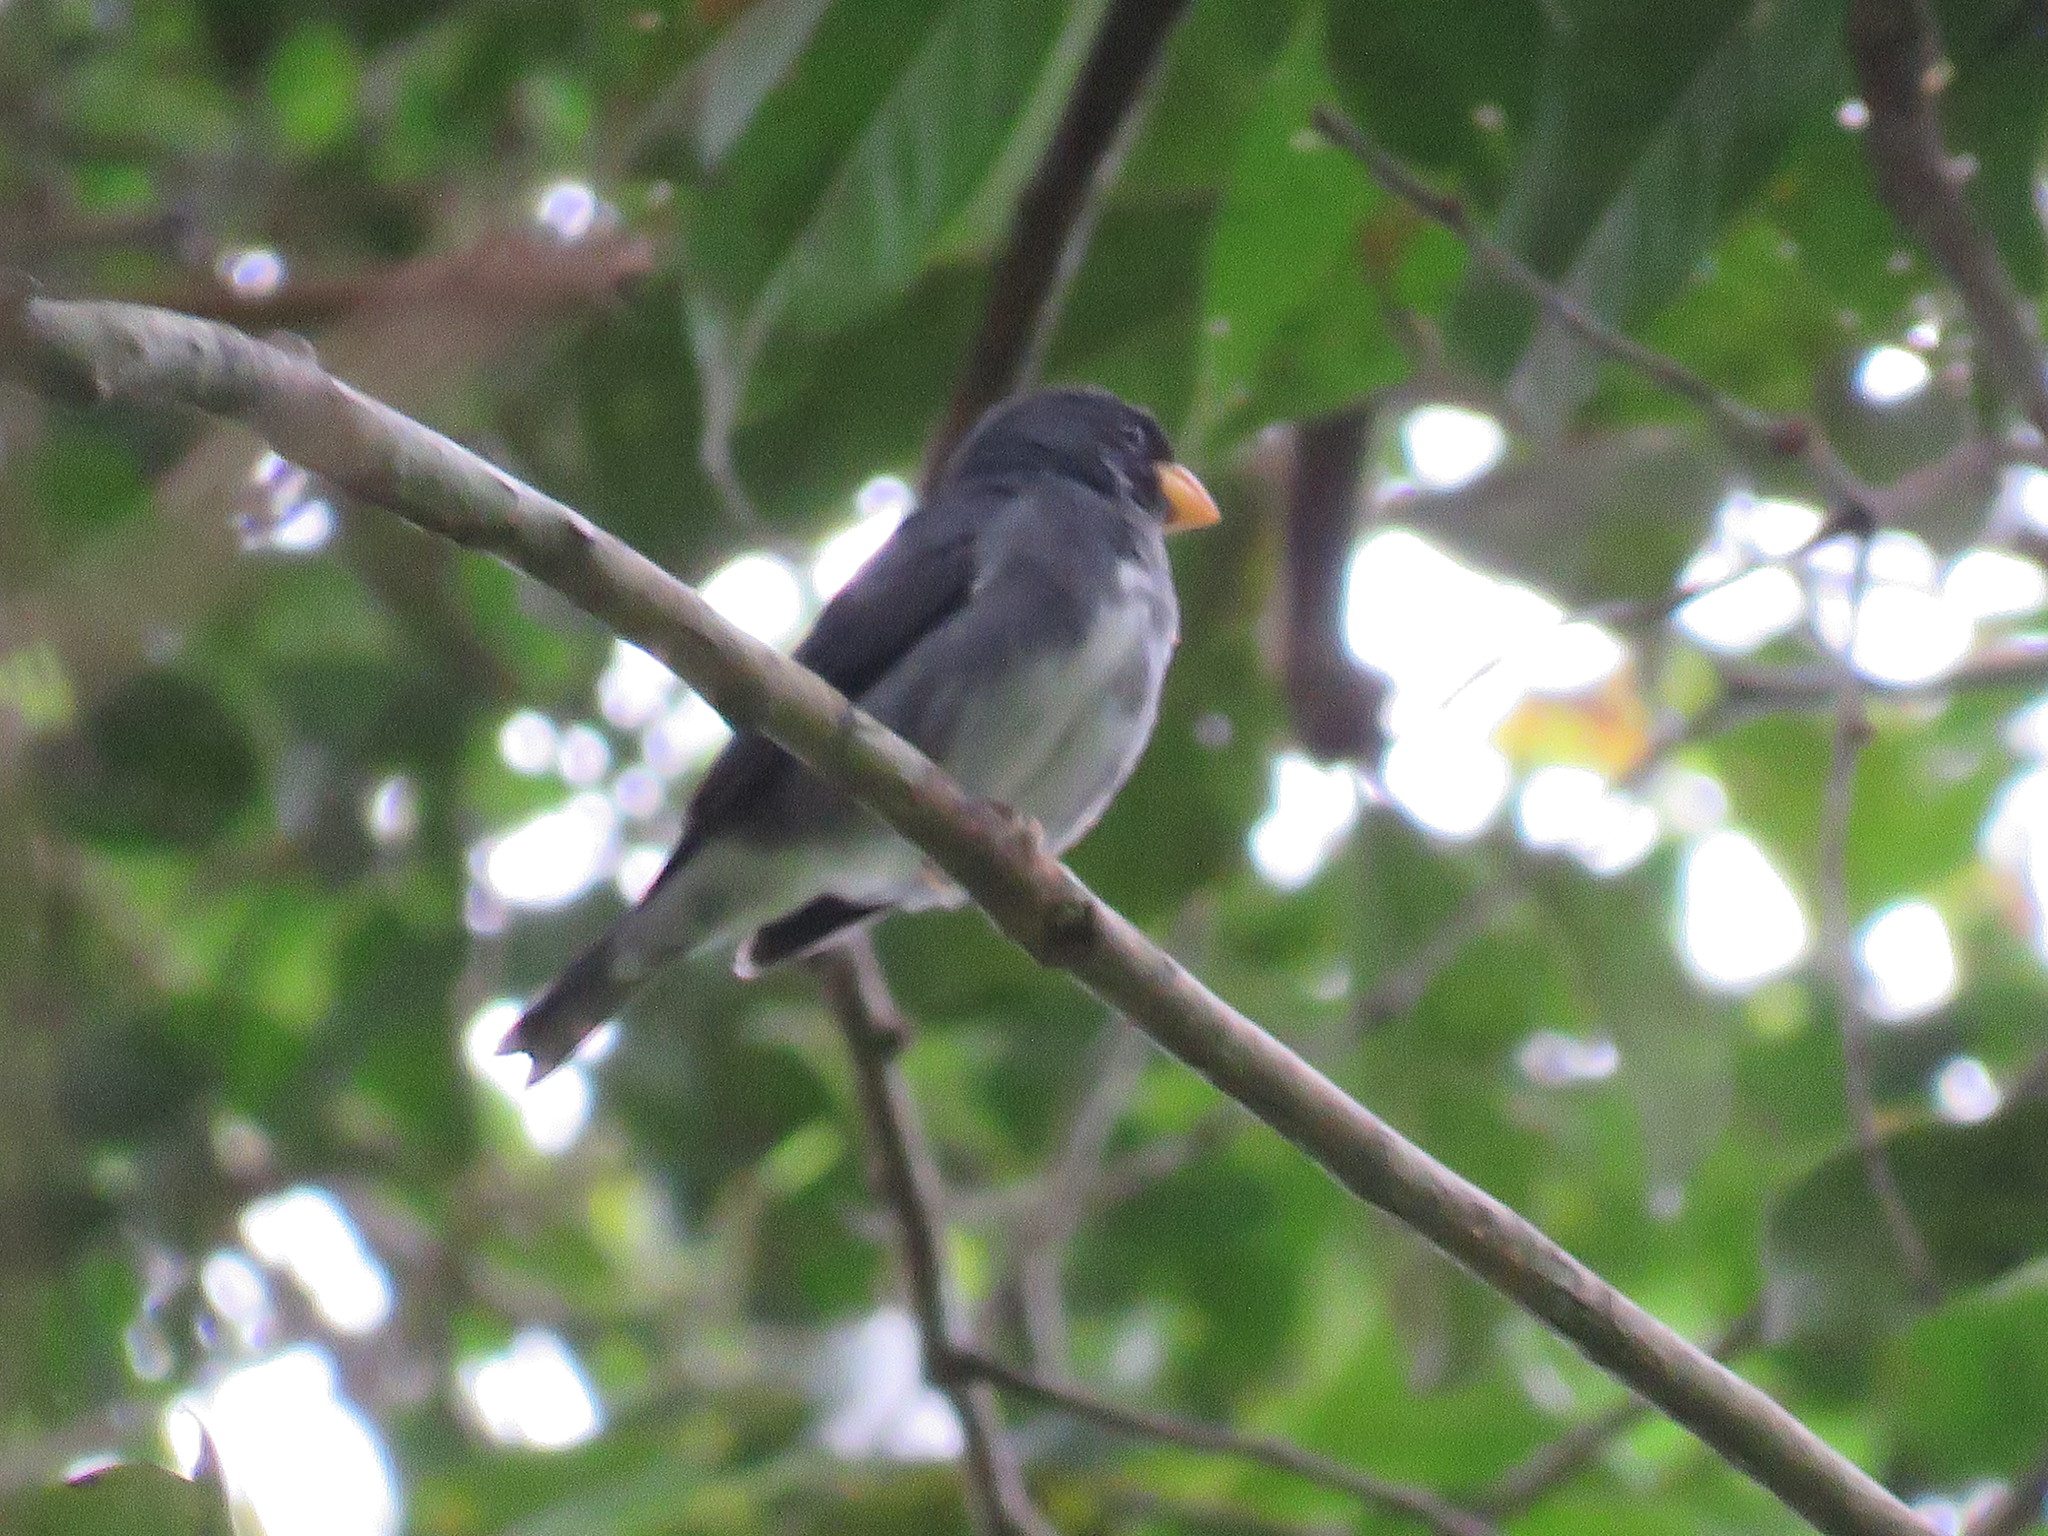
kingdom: Animalia
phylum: Chordata
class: Aves
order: Passeriformes
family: Thraupidae
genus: Sporophila
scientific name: Sporophila schistacea
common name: Slate-colored seedeater
